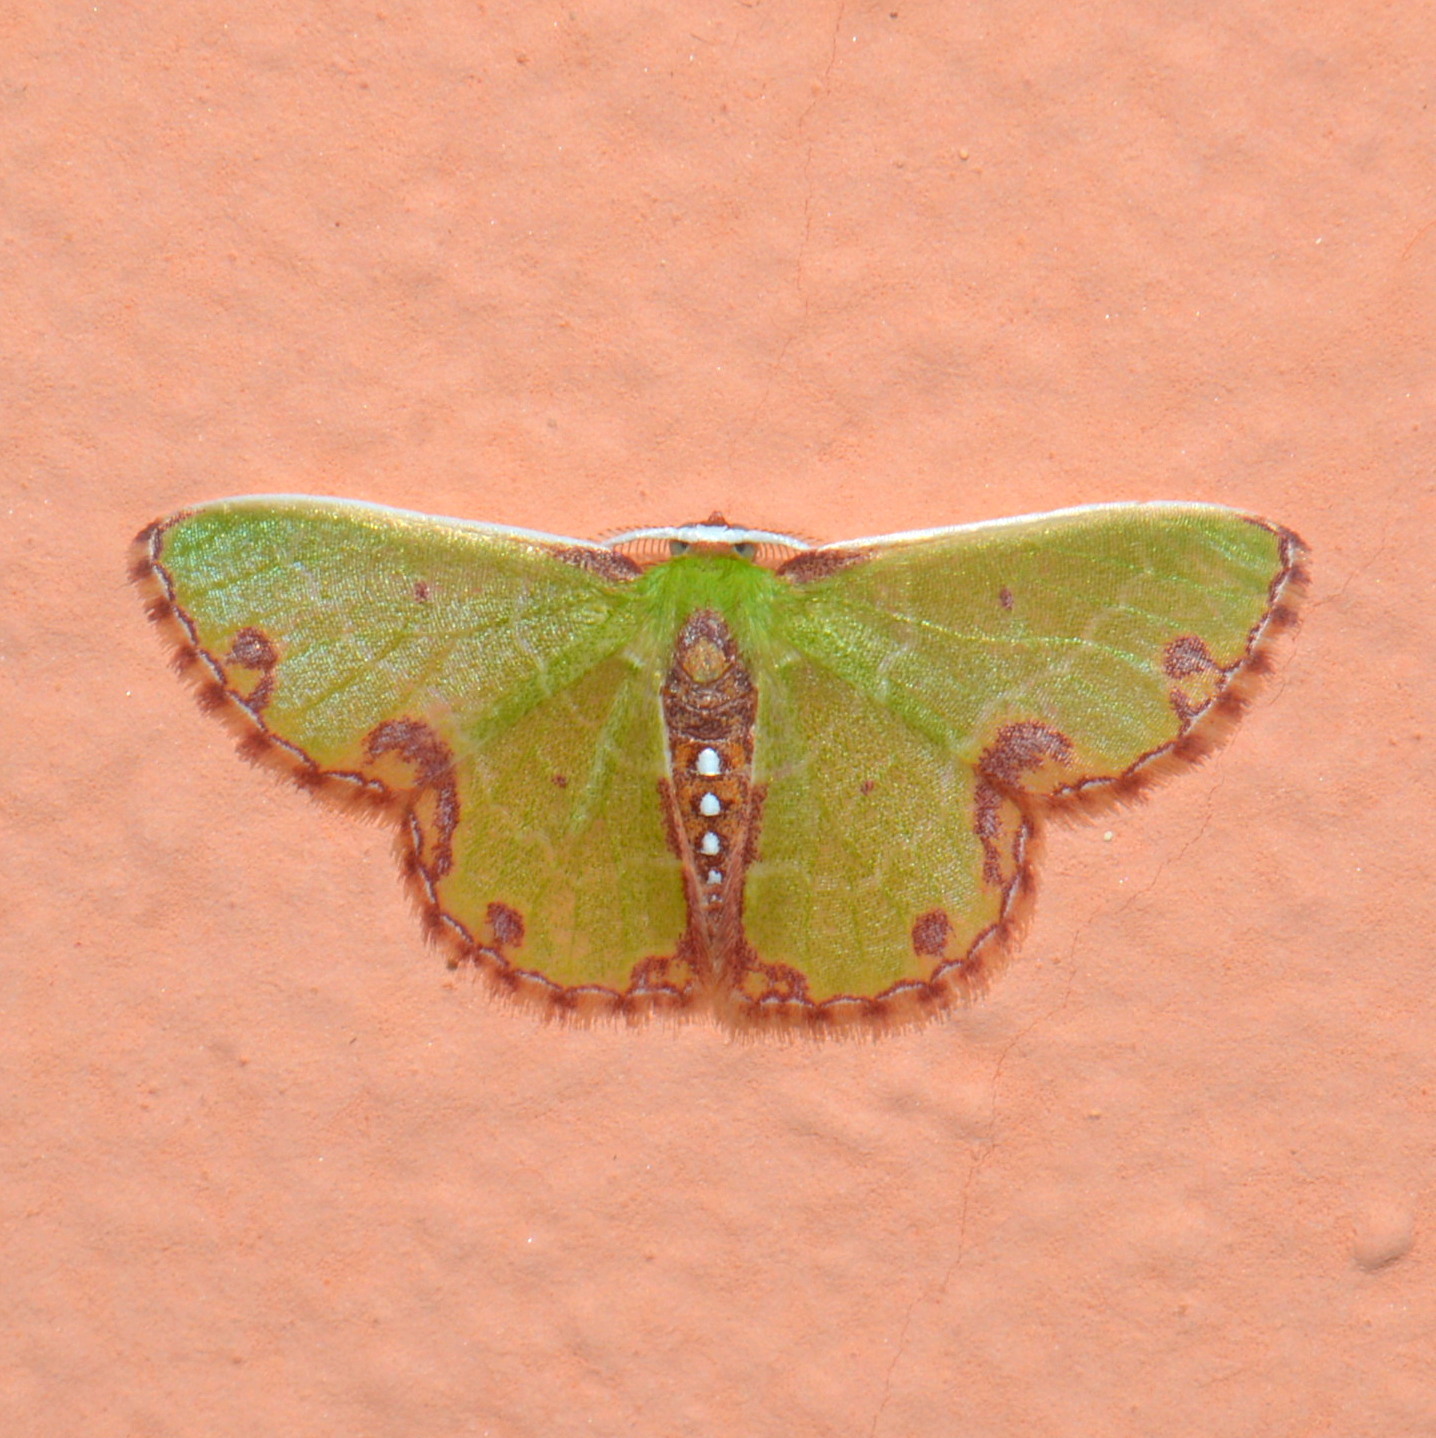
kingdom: Animalia
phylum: Arthropoda
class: Insecta
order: Lepidoptera
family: Geometridae
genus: Synchlora
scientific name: Synchlora gerularia
